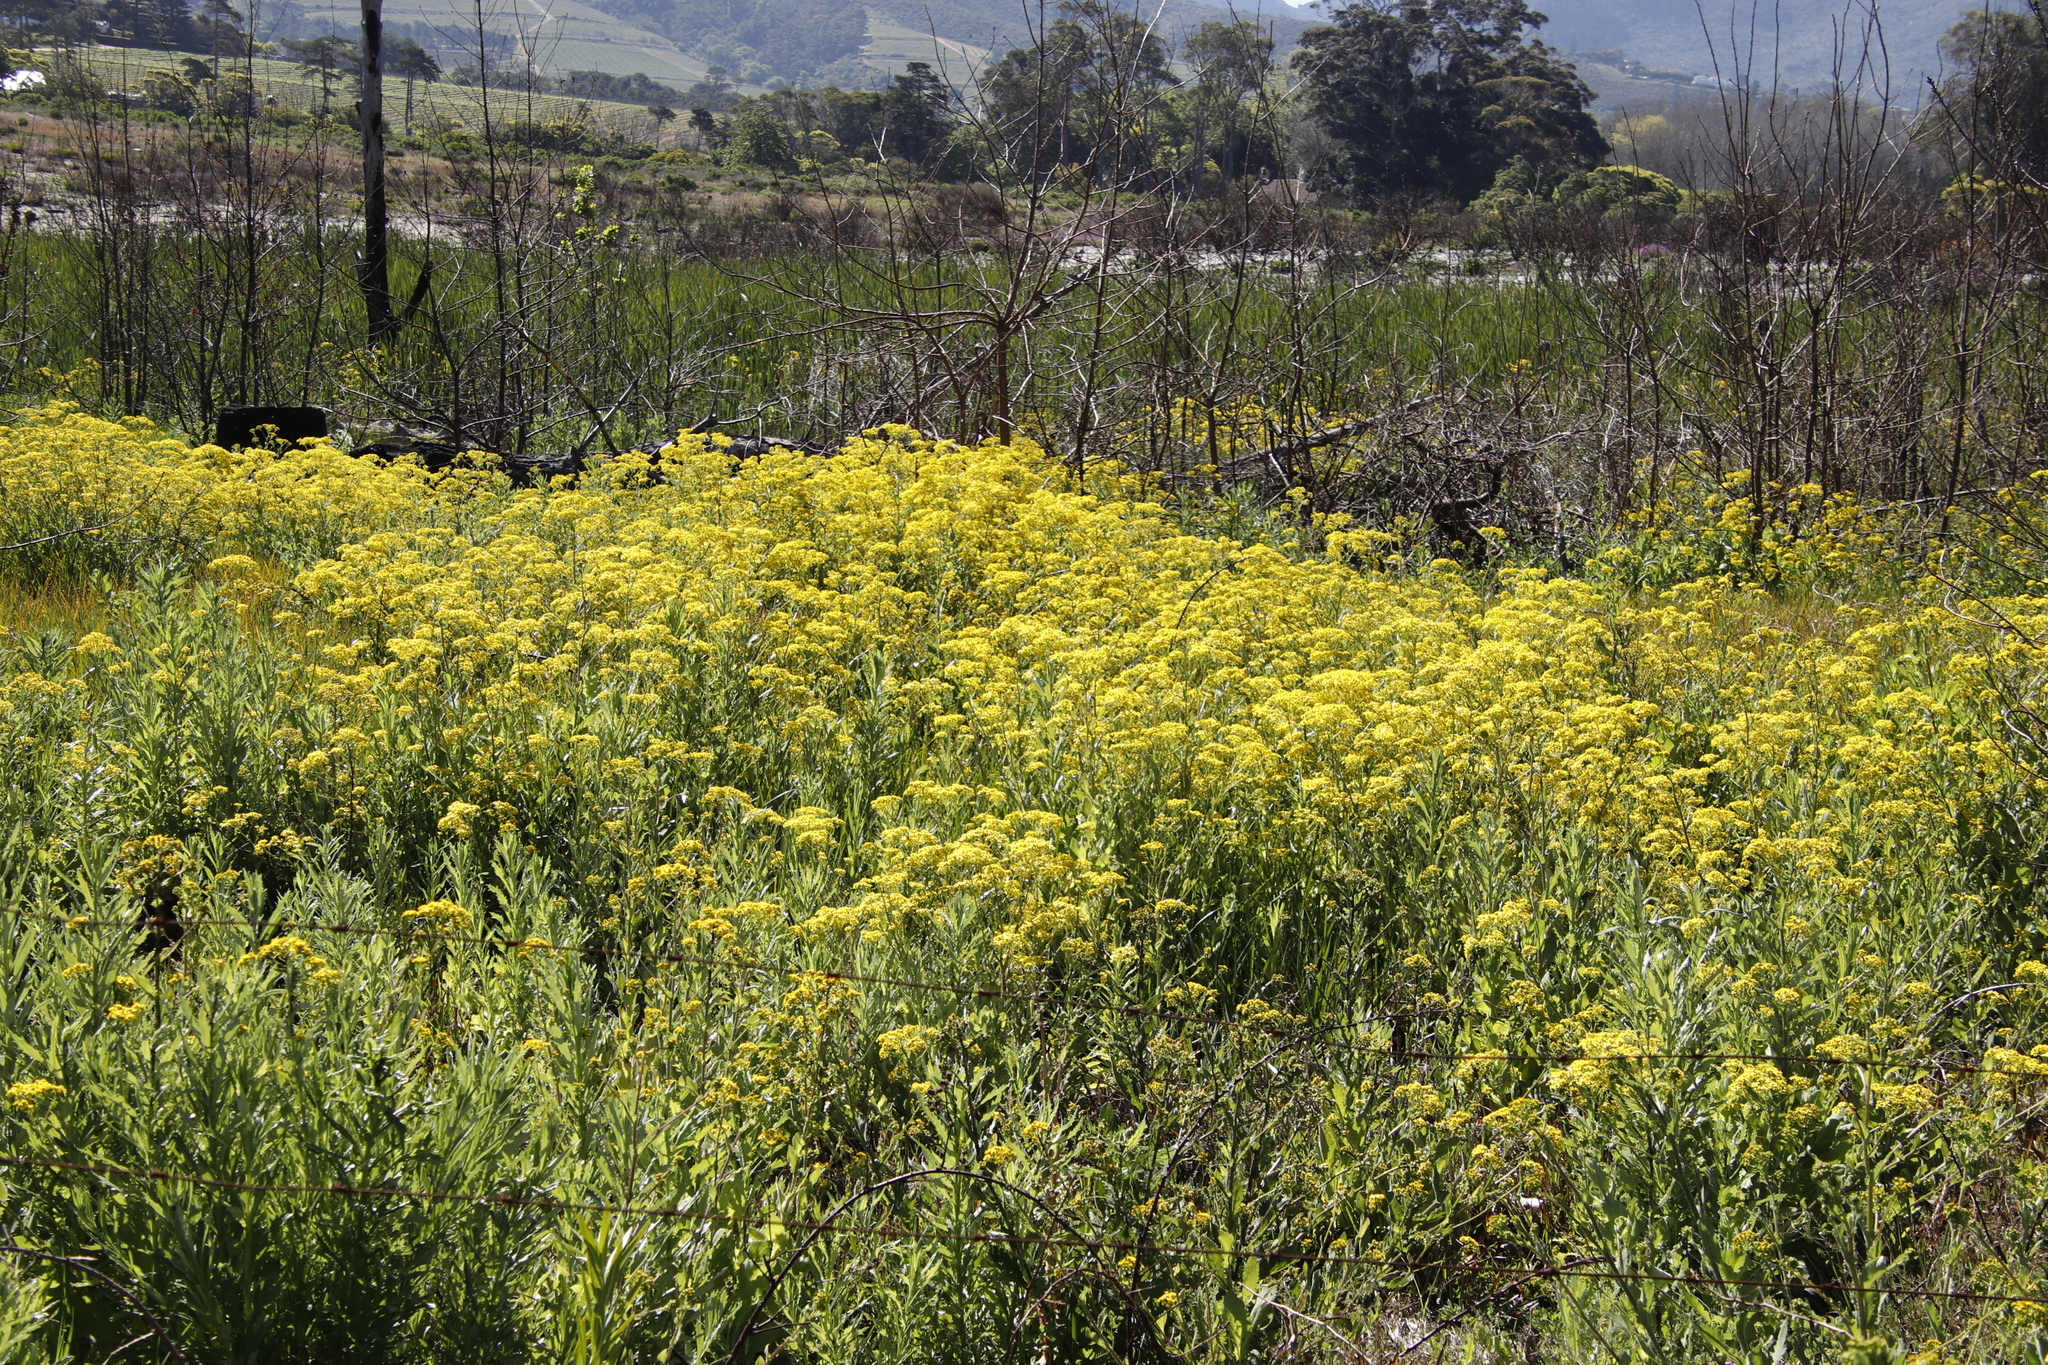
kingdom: Plantae
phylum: Tracheophyta
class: Magnoliopsida
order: Asterales
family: Asteraceae
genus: Senecio
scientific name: Senecio subcanescens
